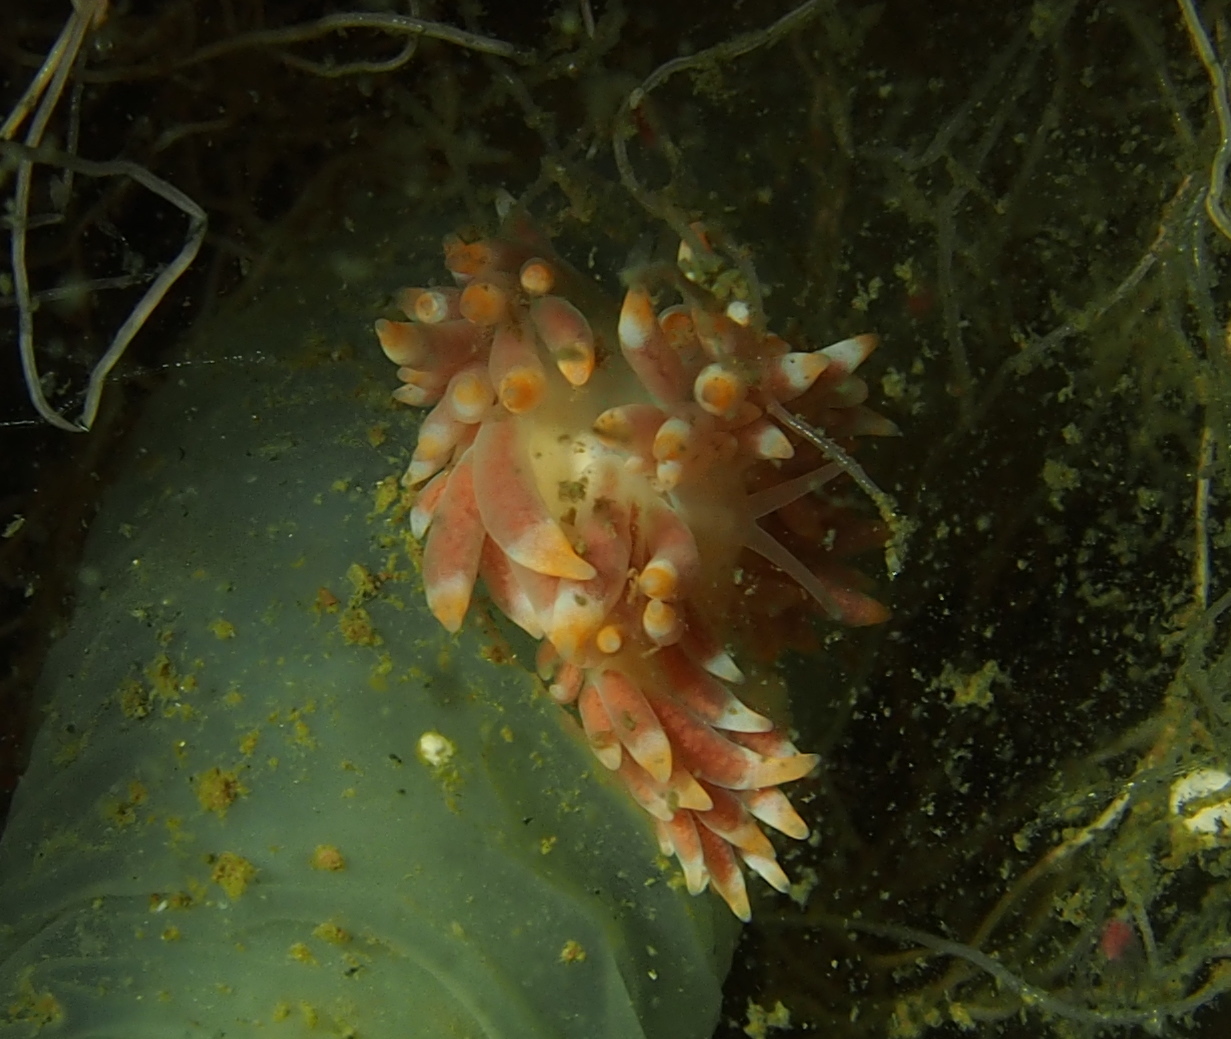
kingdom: Animalia
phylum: Mollusca
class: Gastropoda
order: Nudibranchia
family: Trinchesiidae
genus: Catriona
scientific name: Catriona aurantia
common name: Corange-tip cuthona
